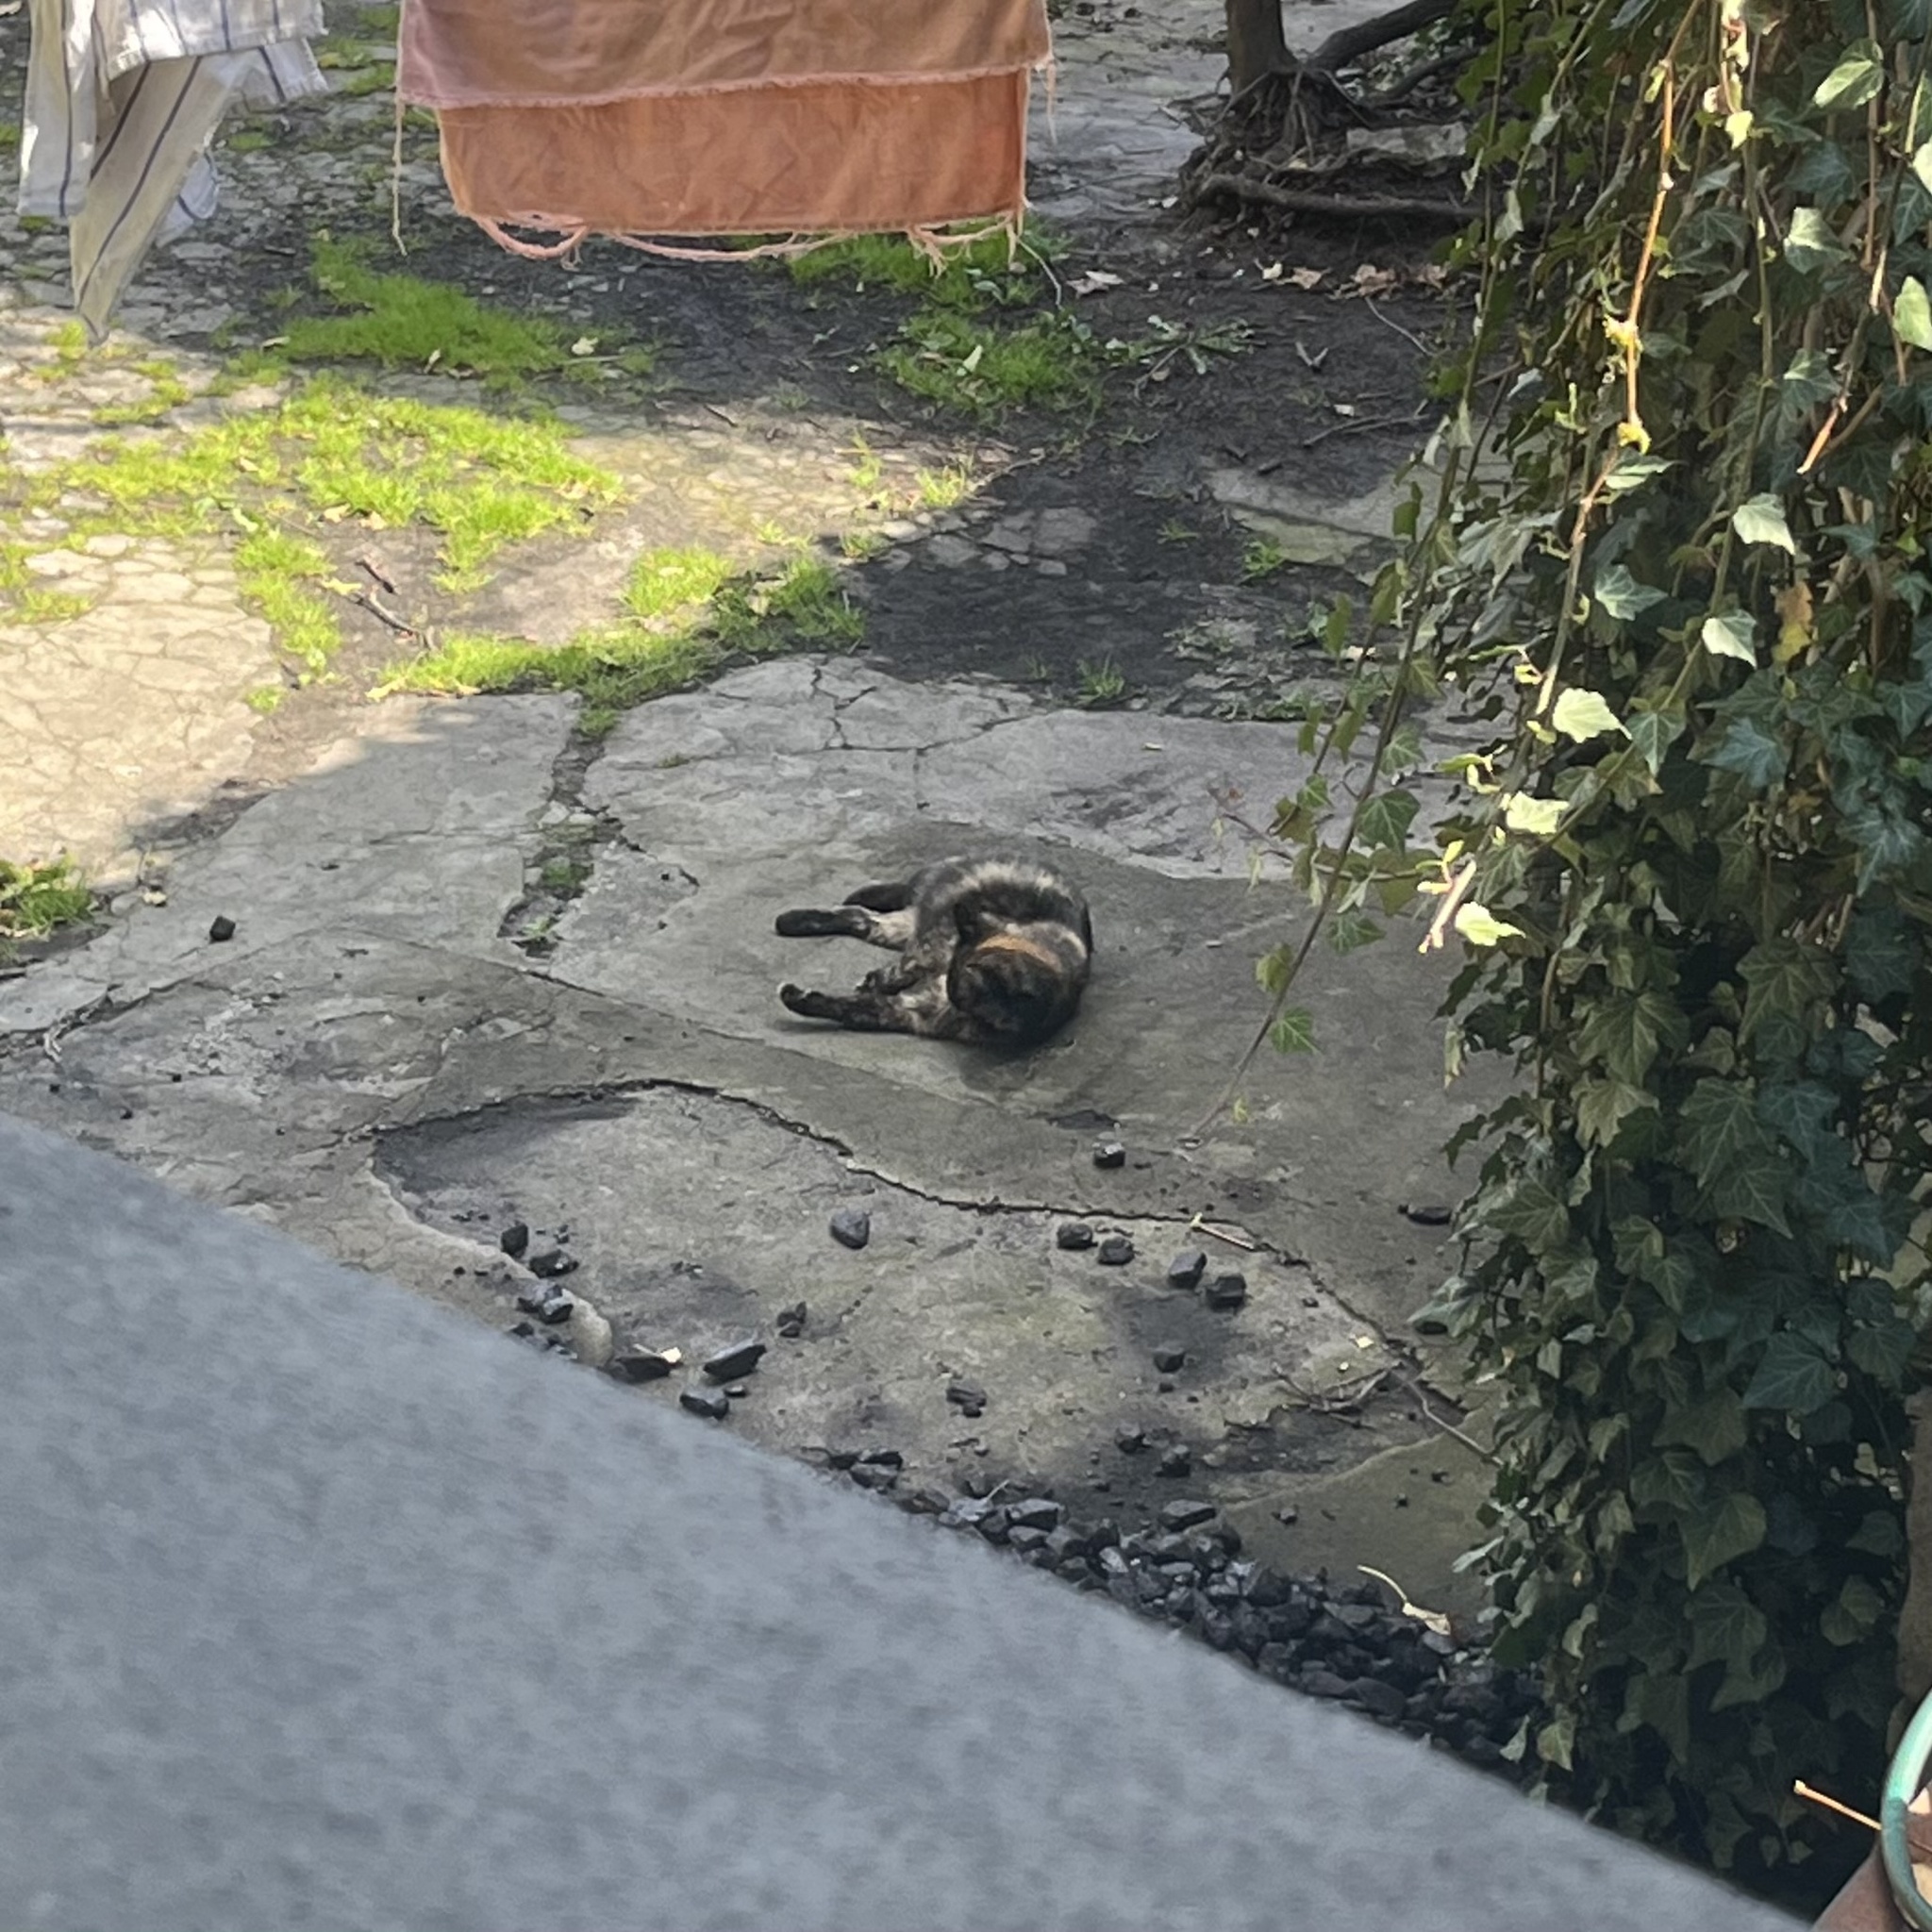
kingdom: Animalia
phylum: Chordata
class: Mammalia
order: Carnivora
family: Felidae
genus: Felis
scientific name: Felis catus
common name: Domestic cat
